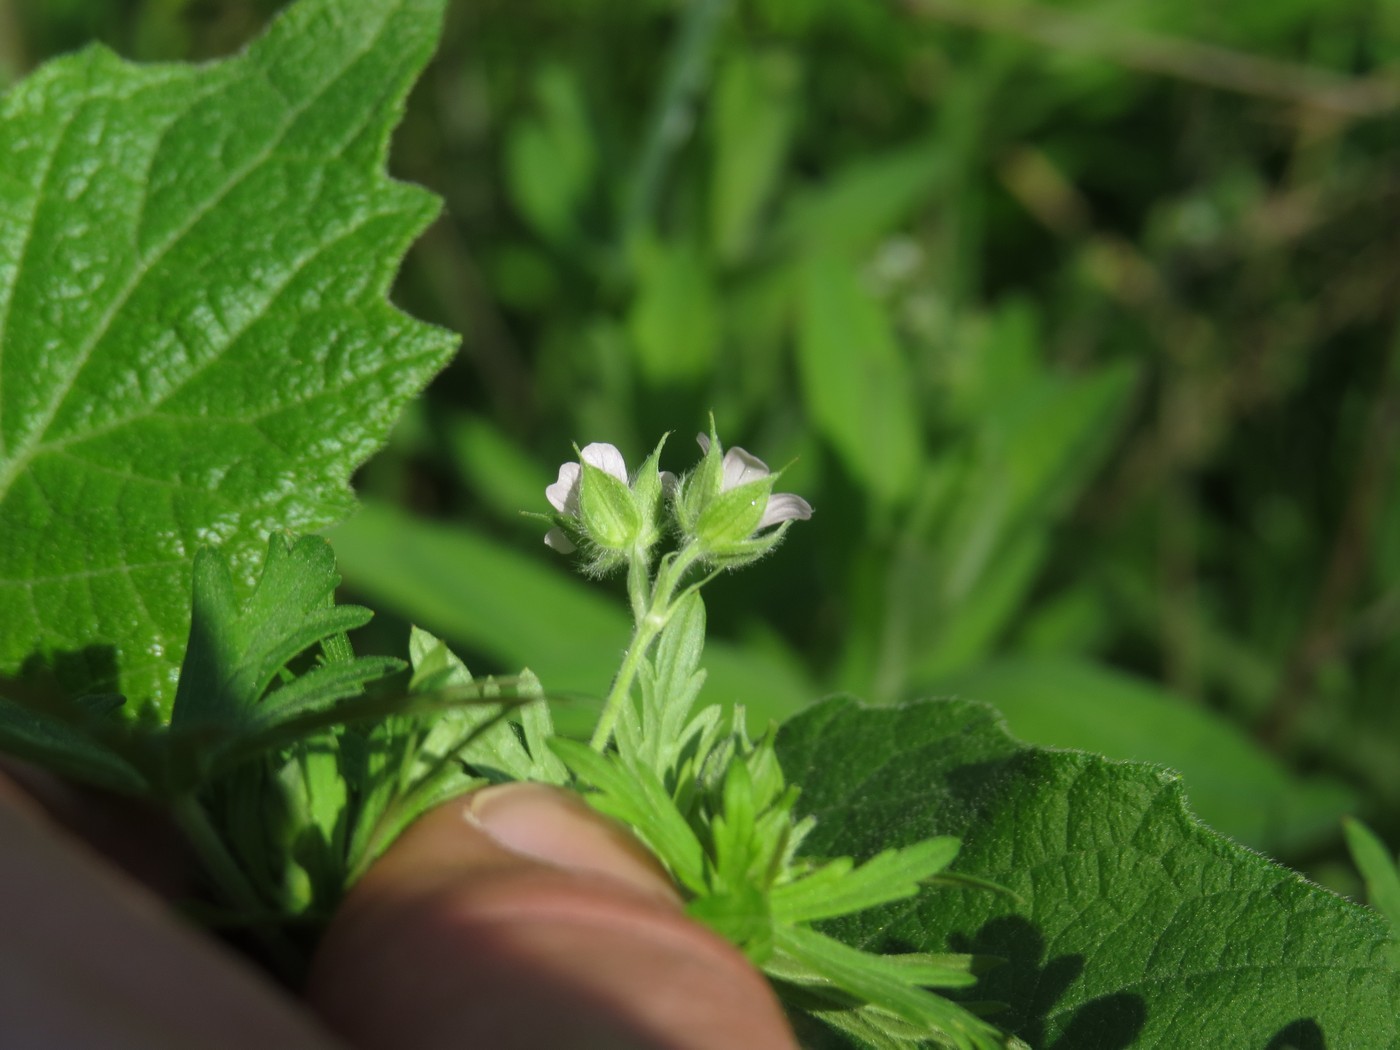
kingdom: Plantae
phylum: Tracheophyta
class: Magnoliopsida
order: Geraniales
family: Geraniaceae
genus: Geranium
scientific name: Geranium carolinianum
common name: Carolina crane's-bill
